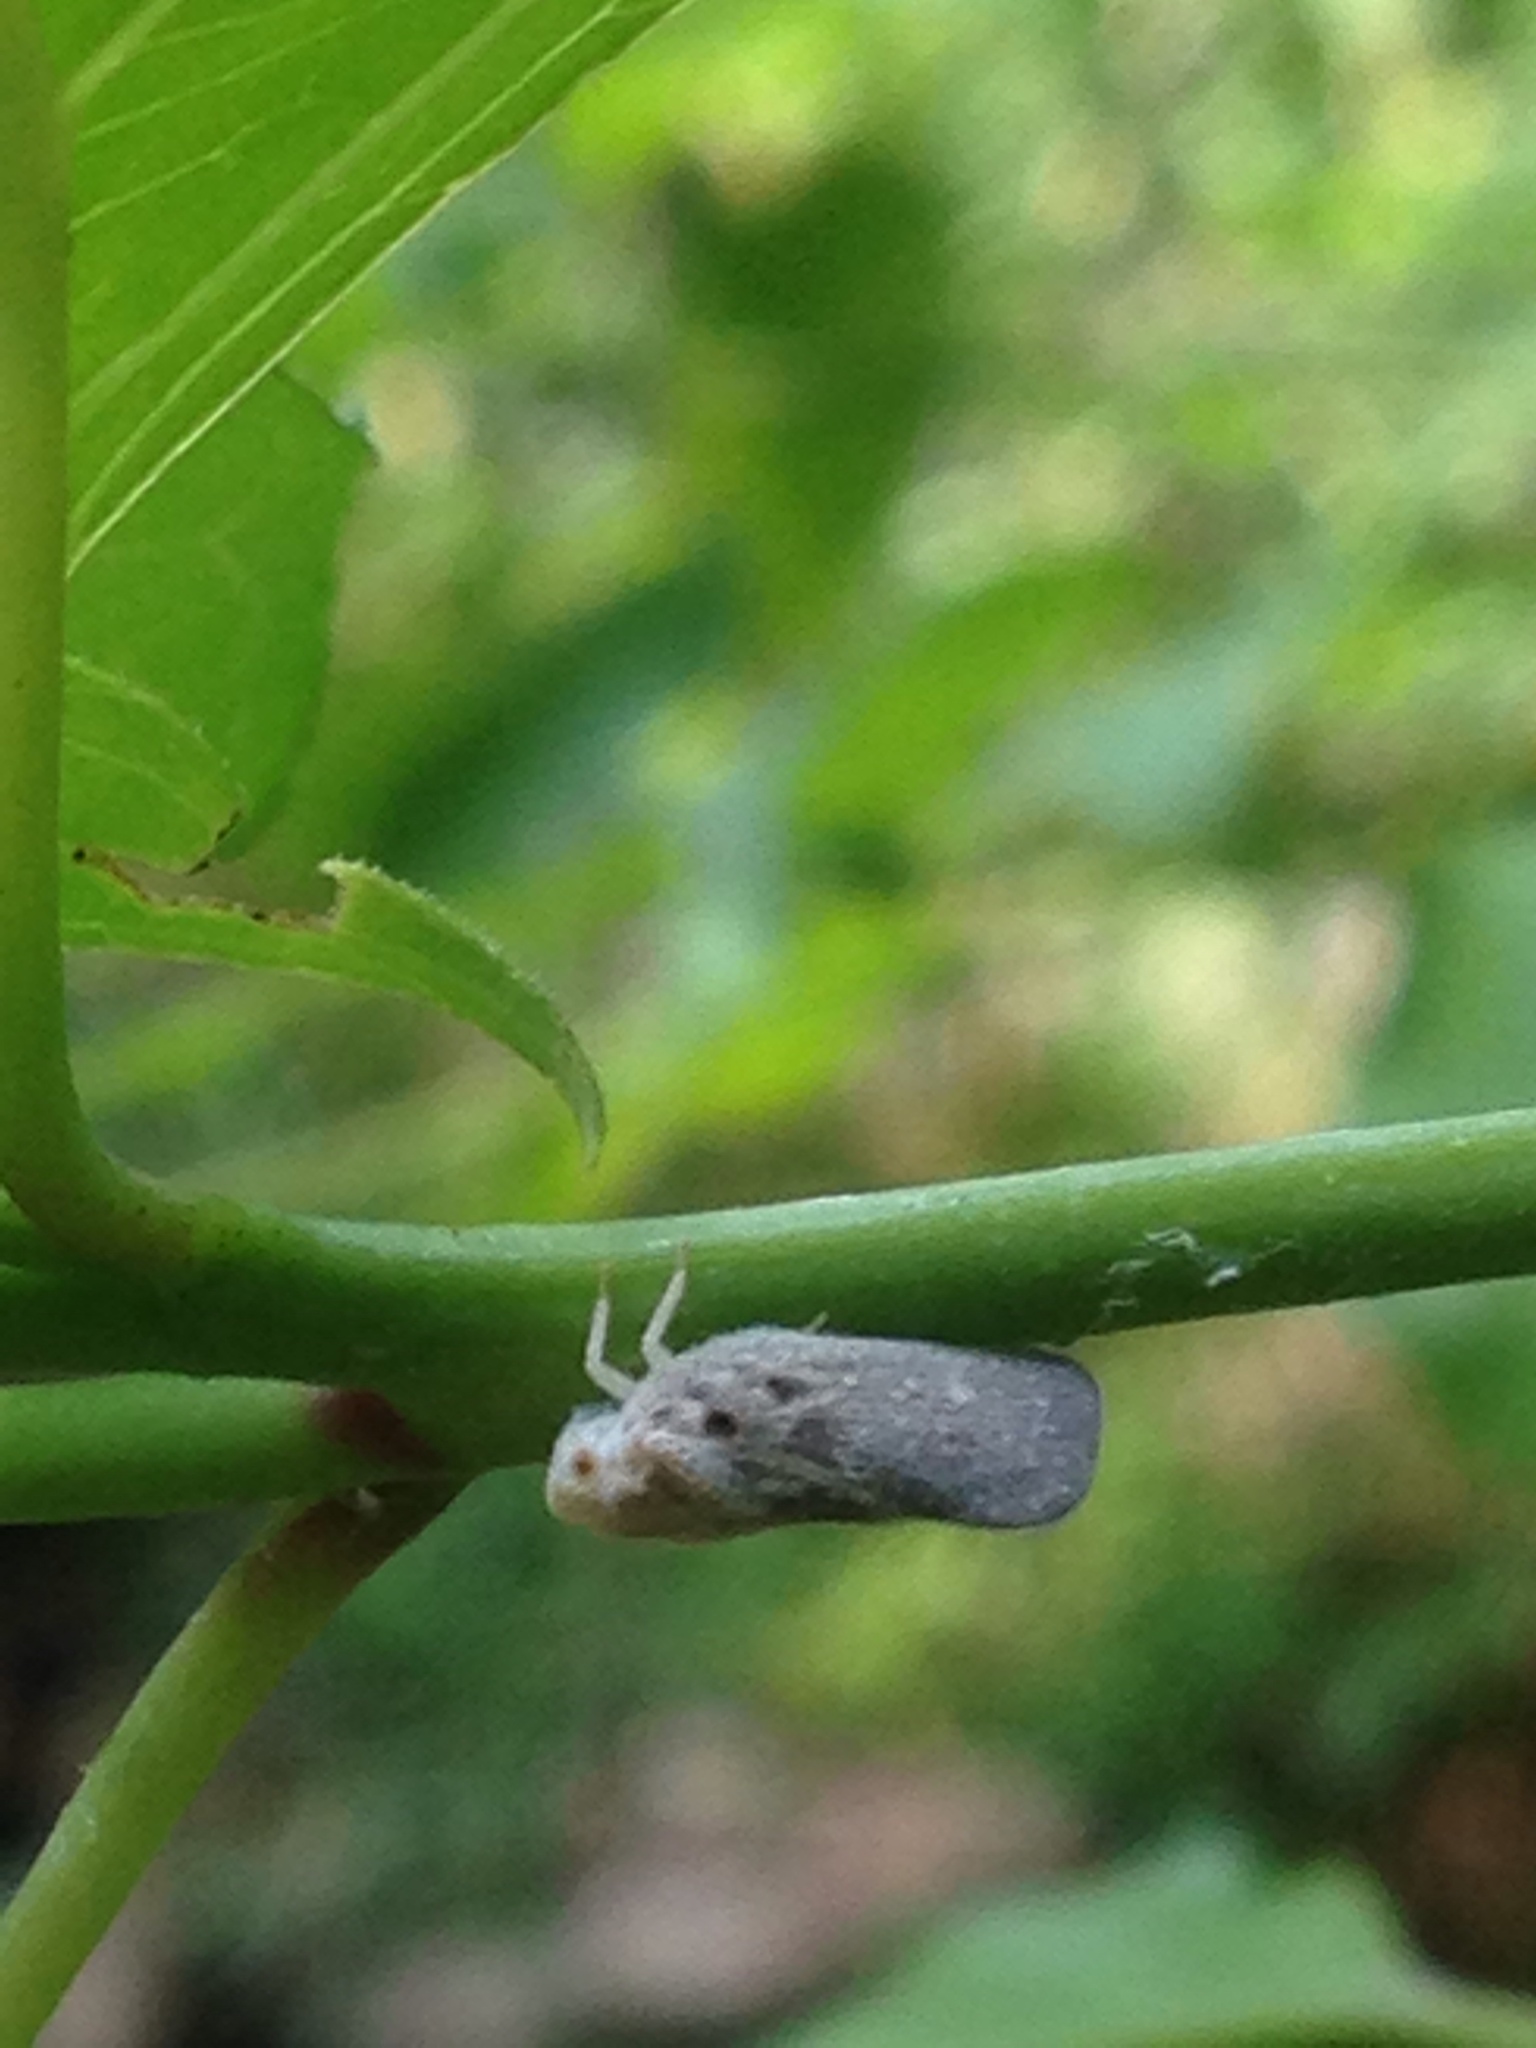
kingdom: Animalia
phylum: Arthropoda
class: Insecta
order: Hemiptera
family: Flatidae
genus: Metcalfa
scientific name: Metcalfa pruinosa
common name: Citrus flatid planthopper
